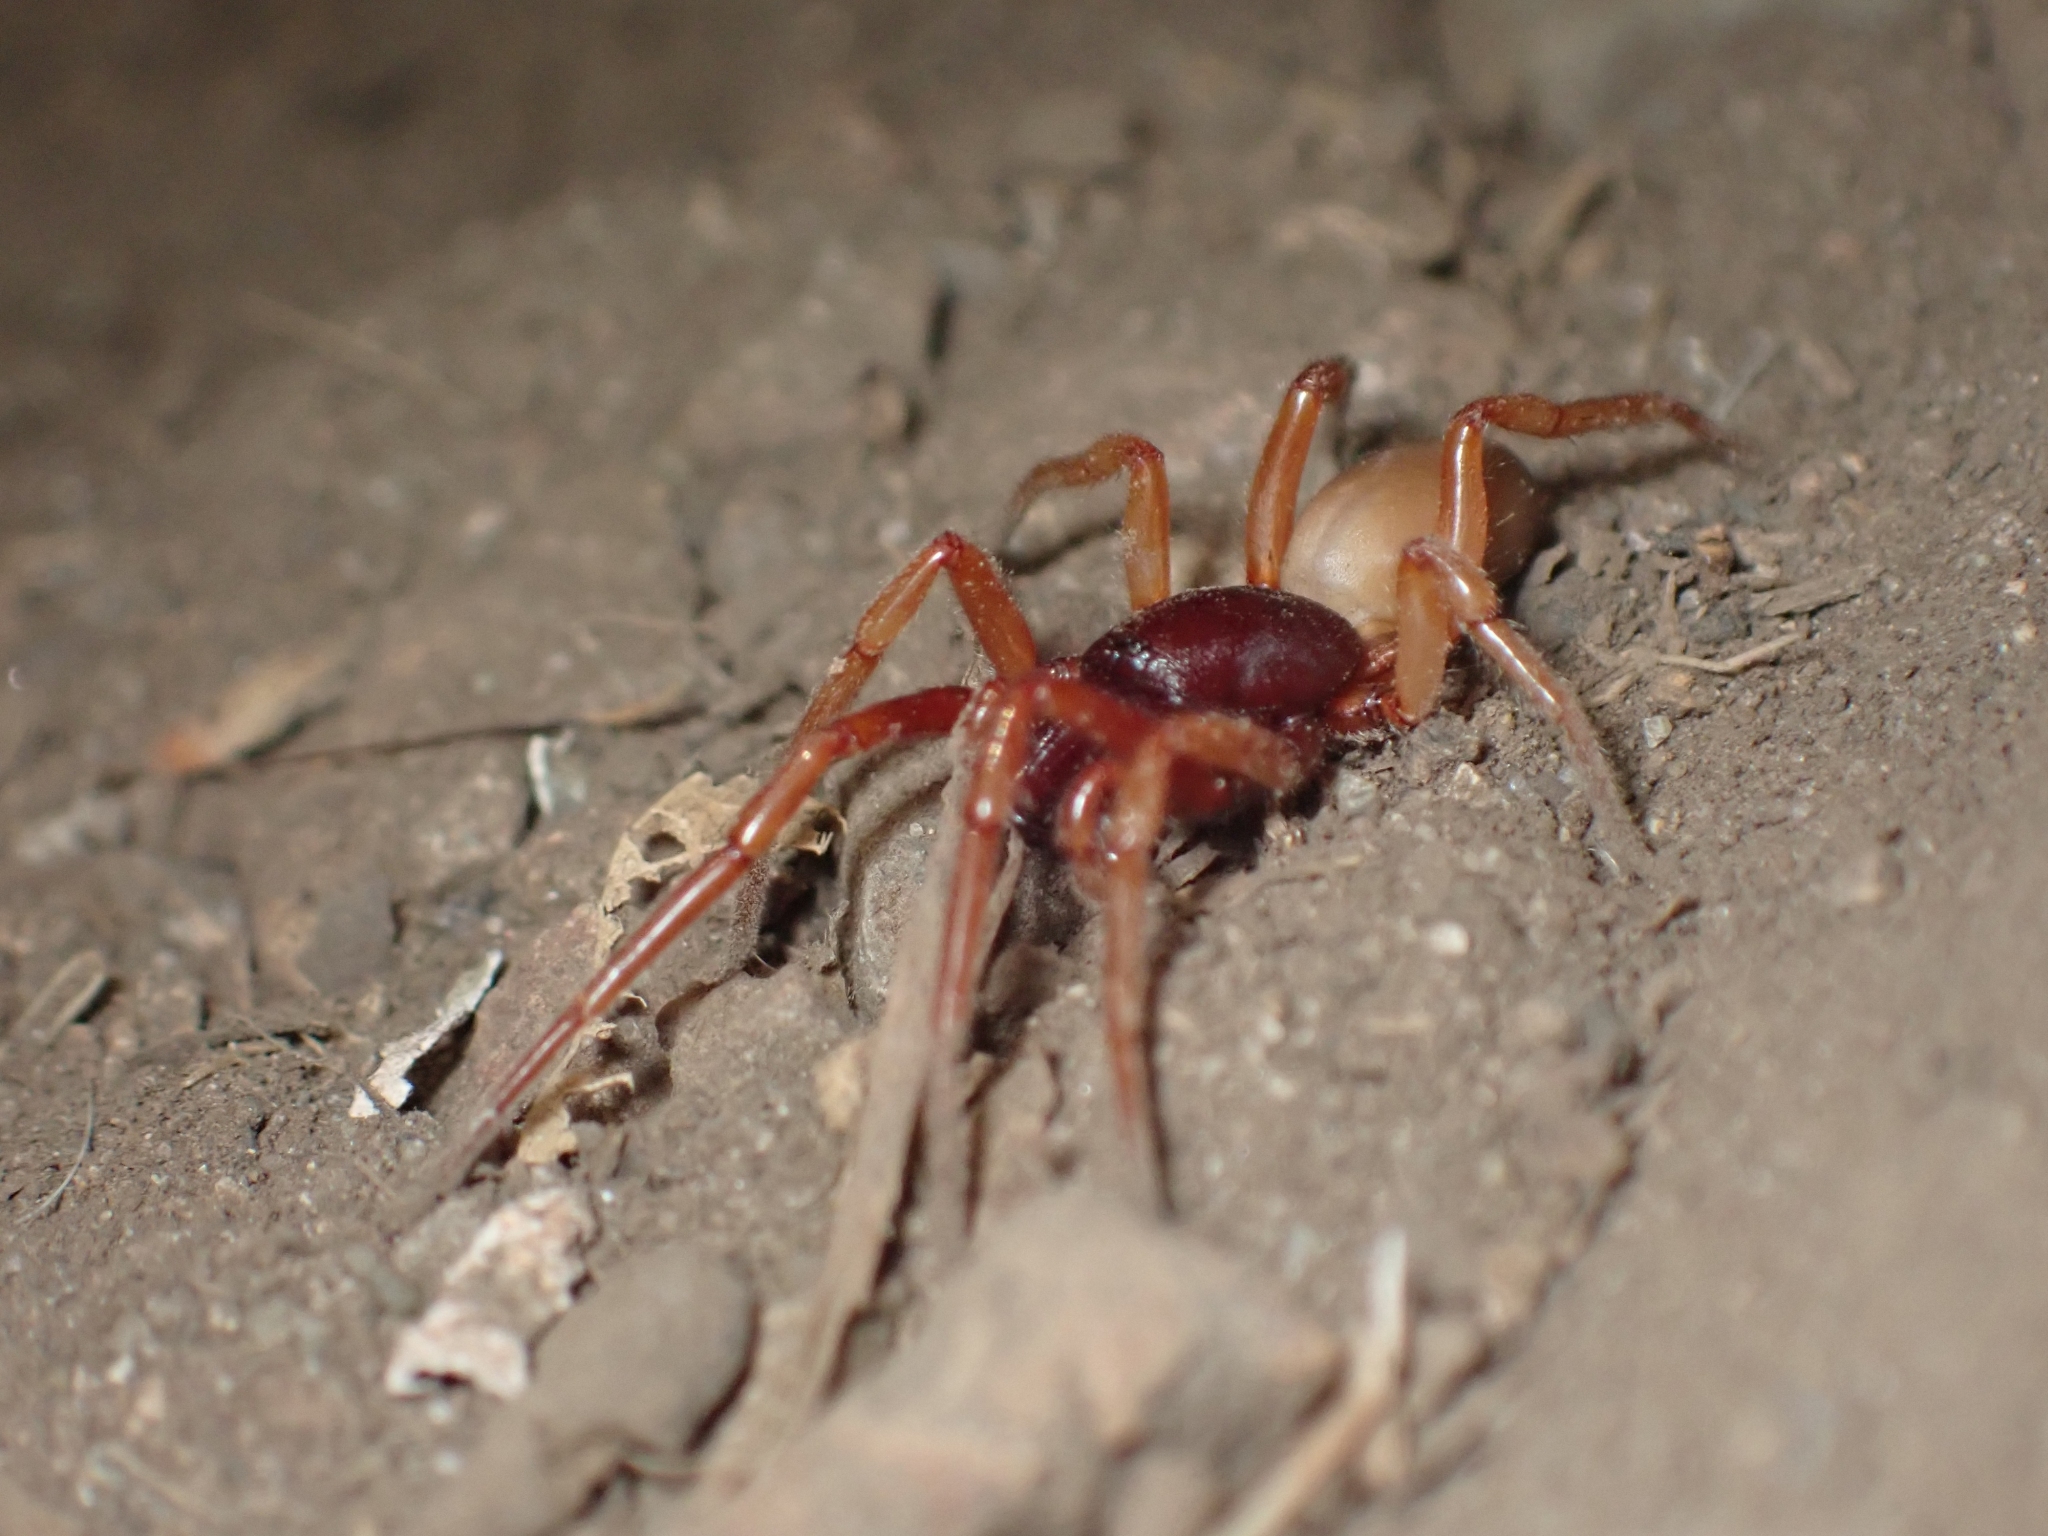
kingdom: Animalia
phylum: Arthropoda
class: Arachnida
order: Araneae
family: Dysderidae
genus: Dysdera
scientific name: Dysdera crocata
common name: Woodlouse spider
